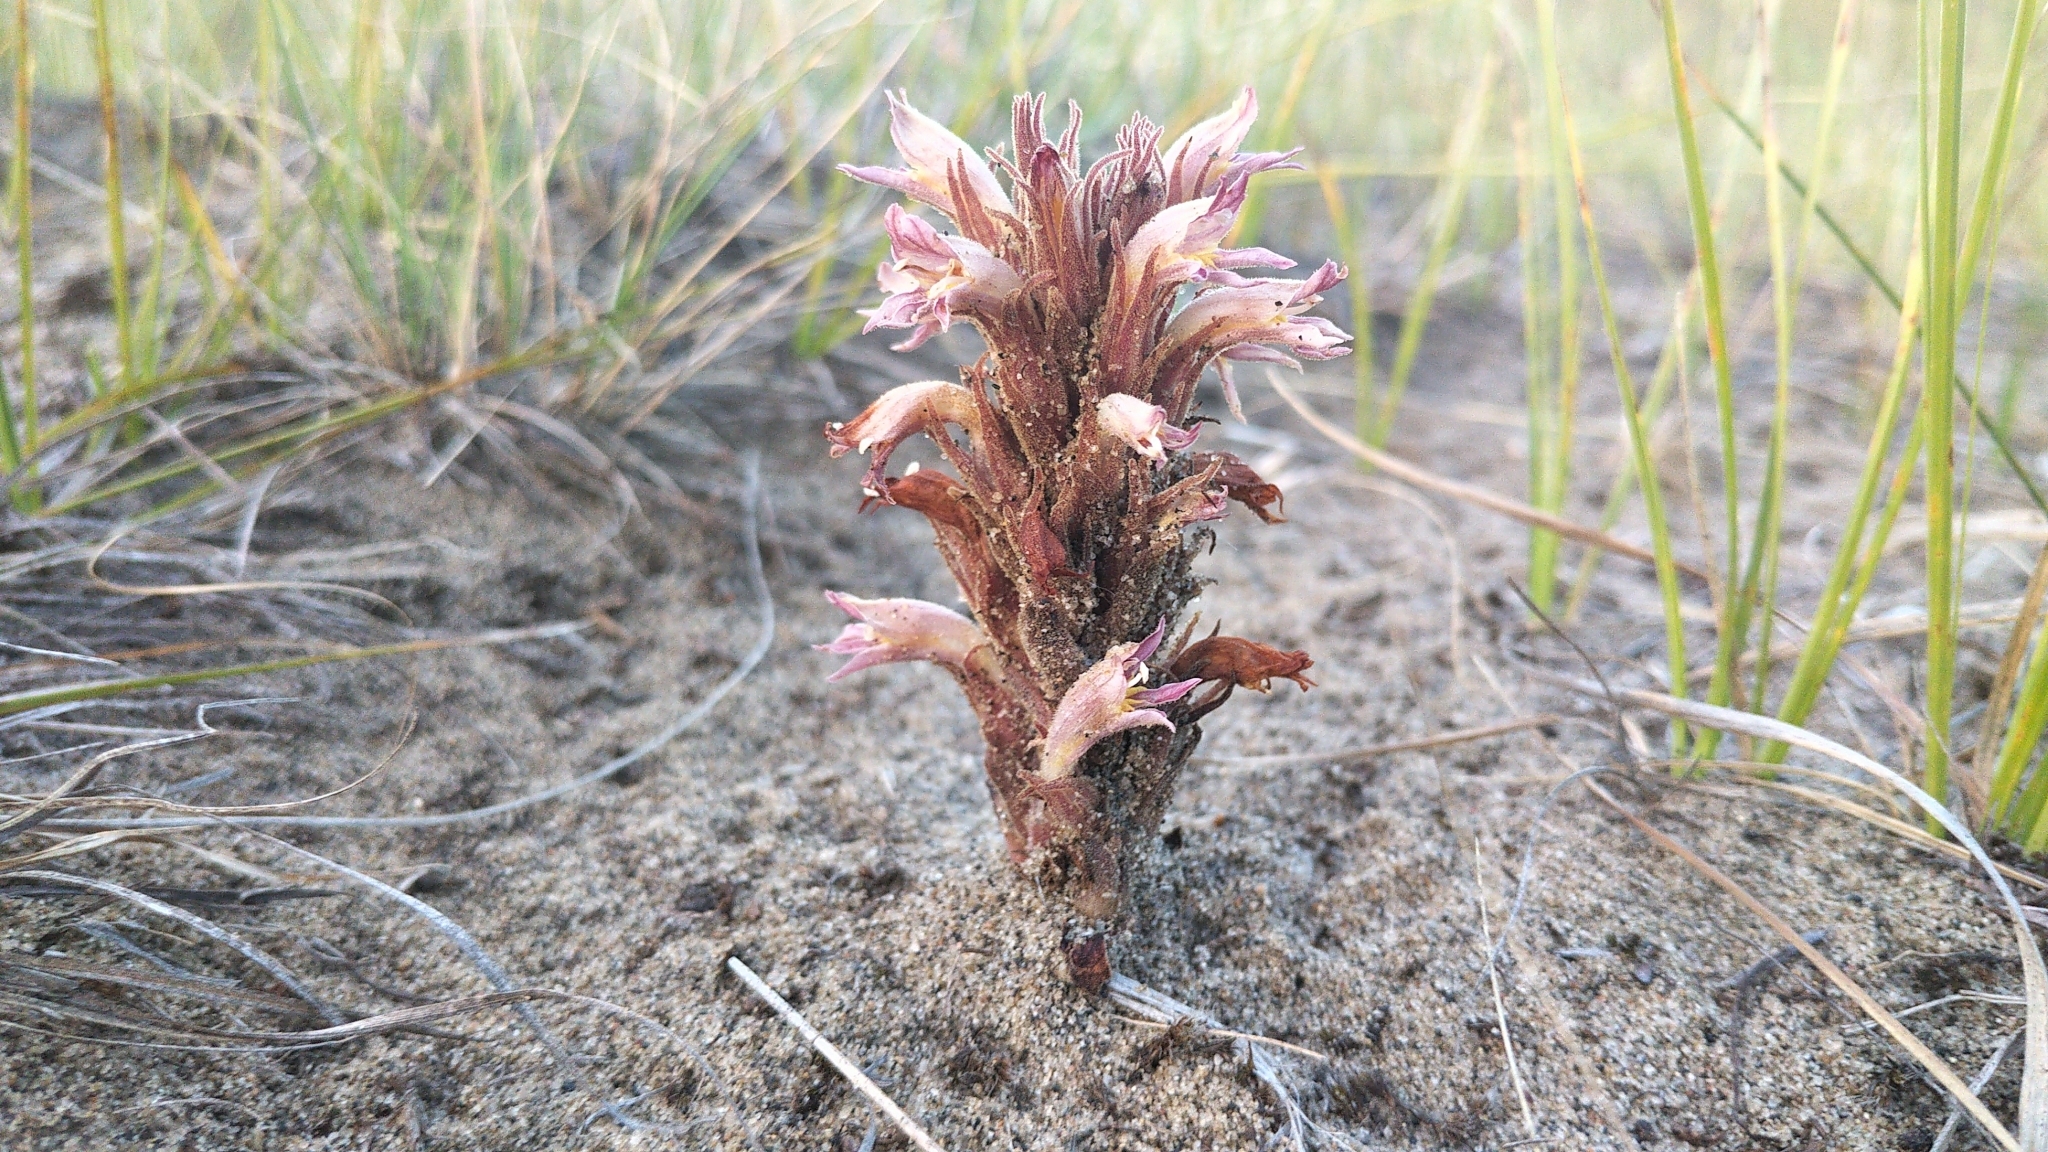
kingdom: Plantae
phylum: Tracheophyta
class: Magnoliopsida
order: Lamiales
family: Orobanchaceae
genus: Aphyllon
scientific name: Aphyllon corymbosum
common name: Flat-top broomrape
